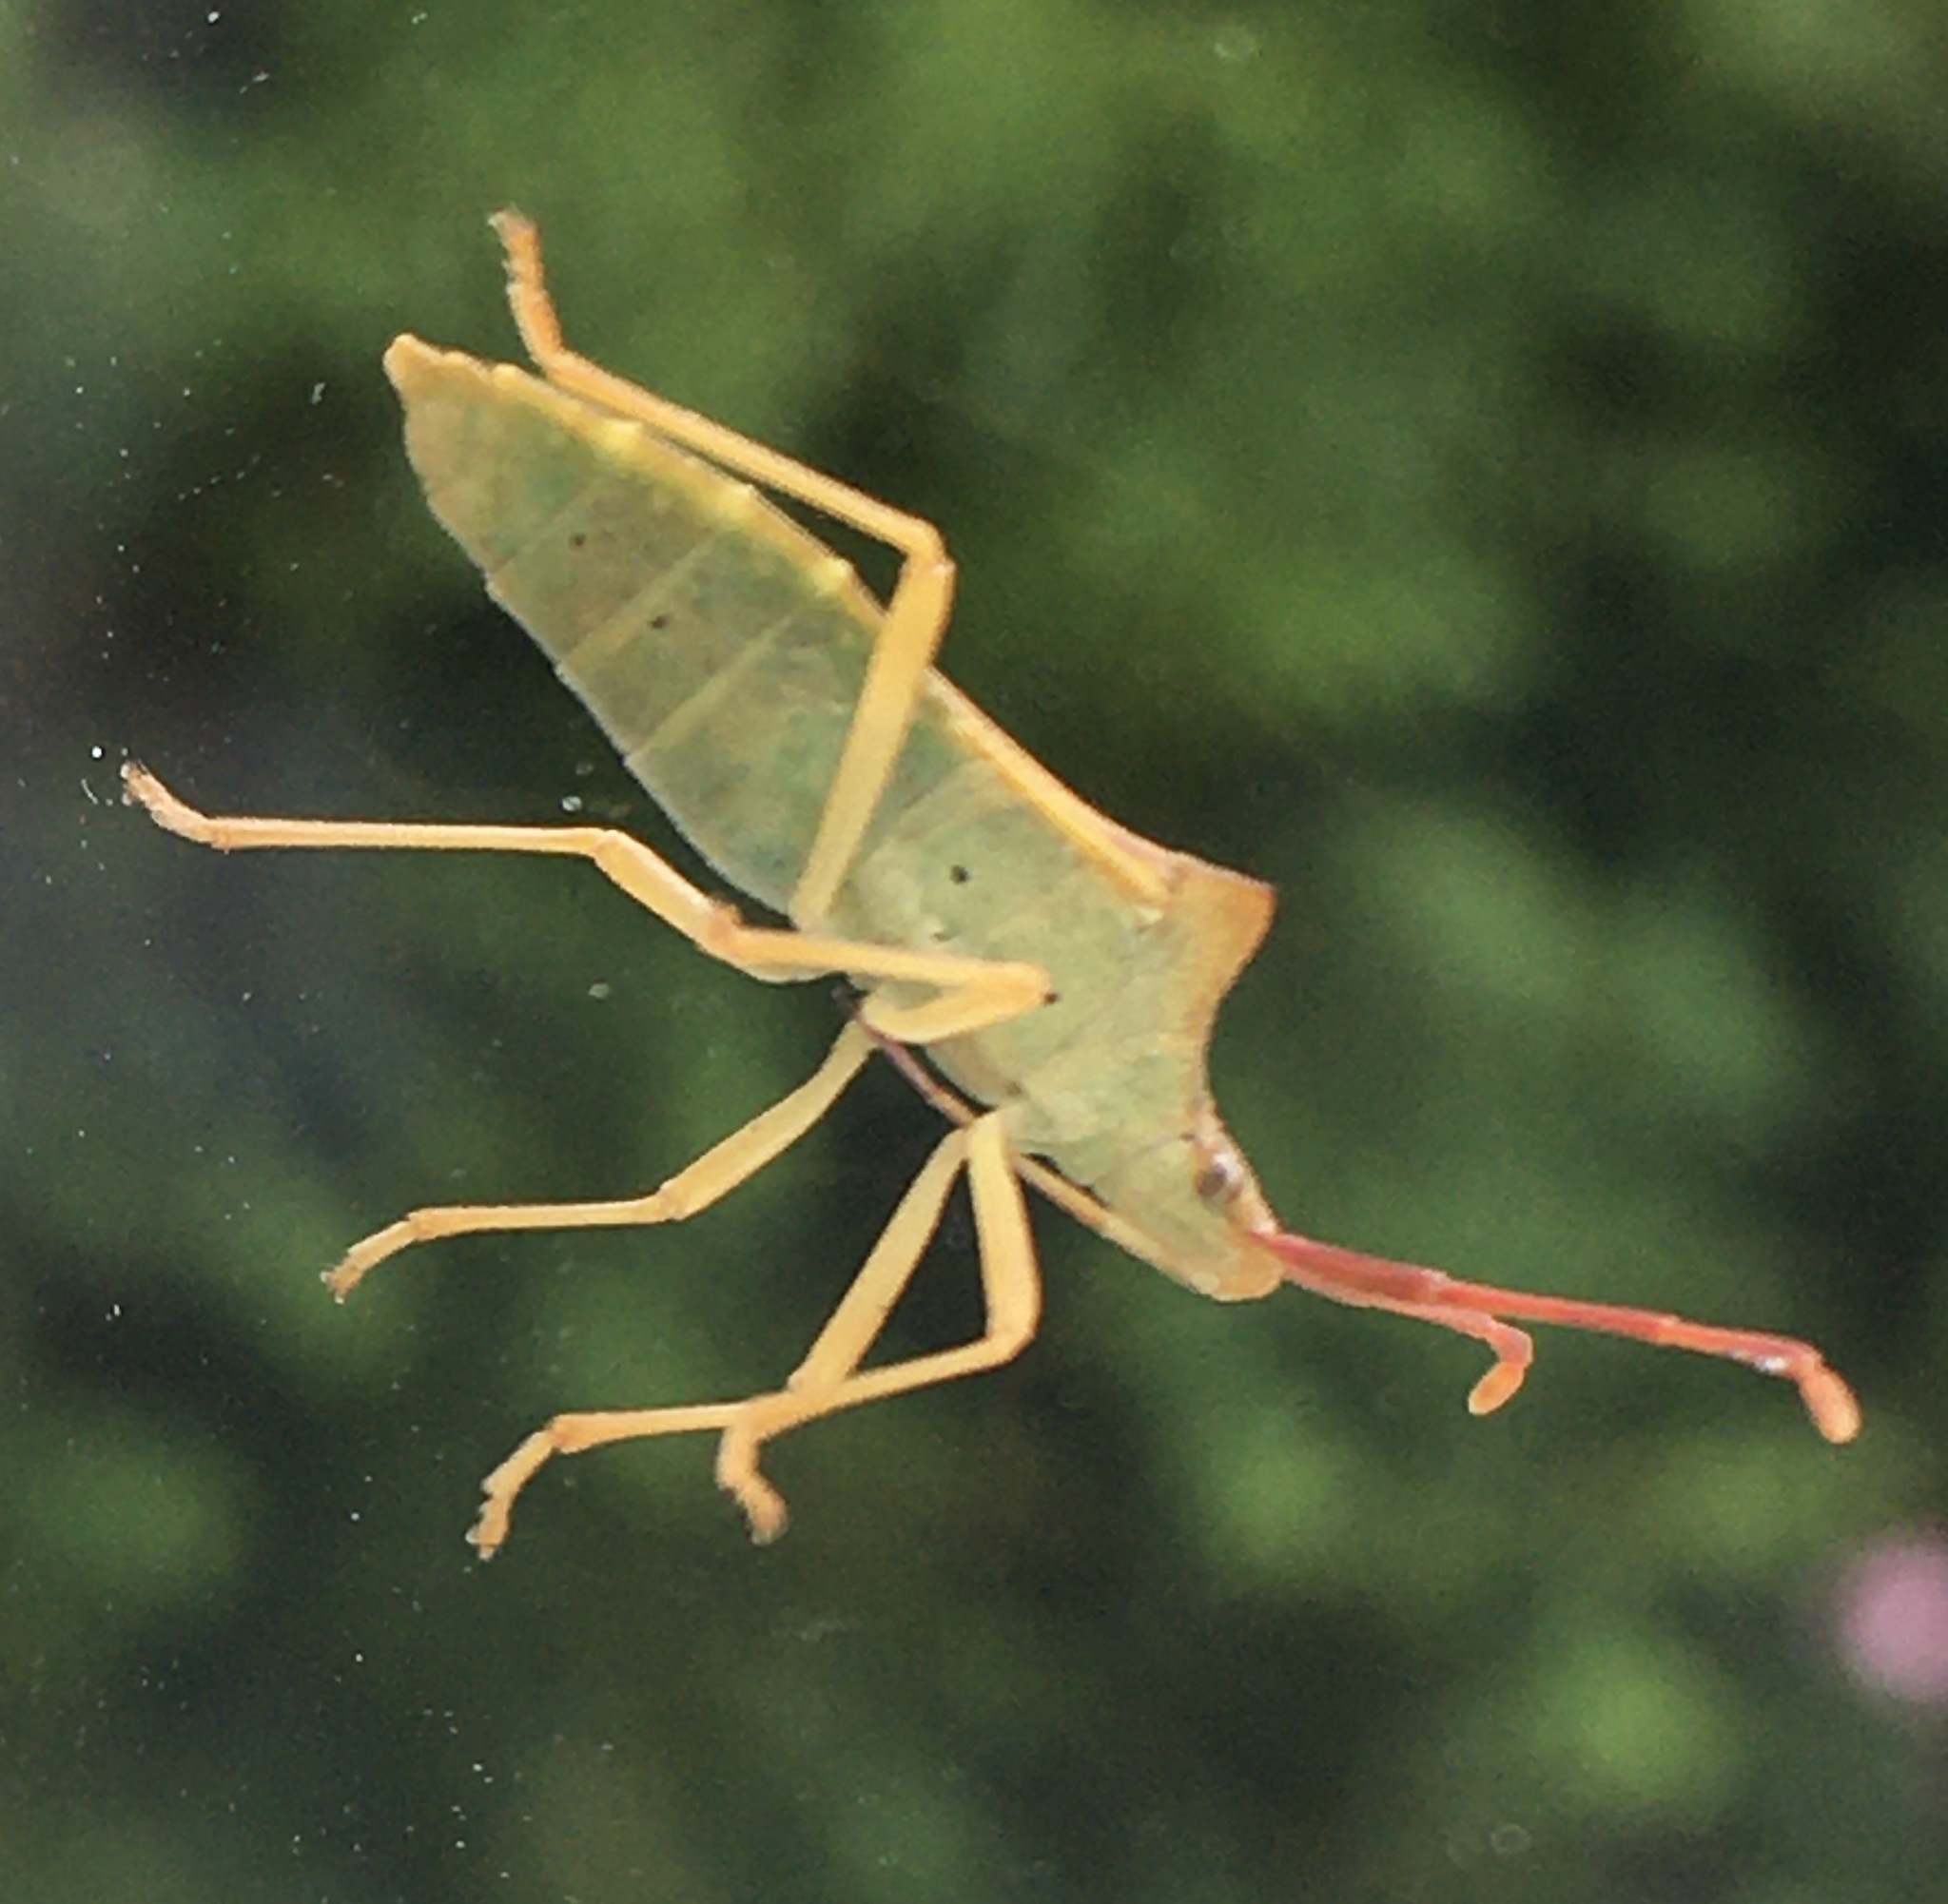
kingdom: Animalia
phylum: Arthropoda
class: Insecta
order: Hemiptera
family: Coreidae
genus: Gonocerus
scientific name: Gonocerus acuteangulatus
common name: Box bug
